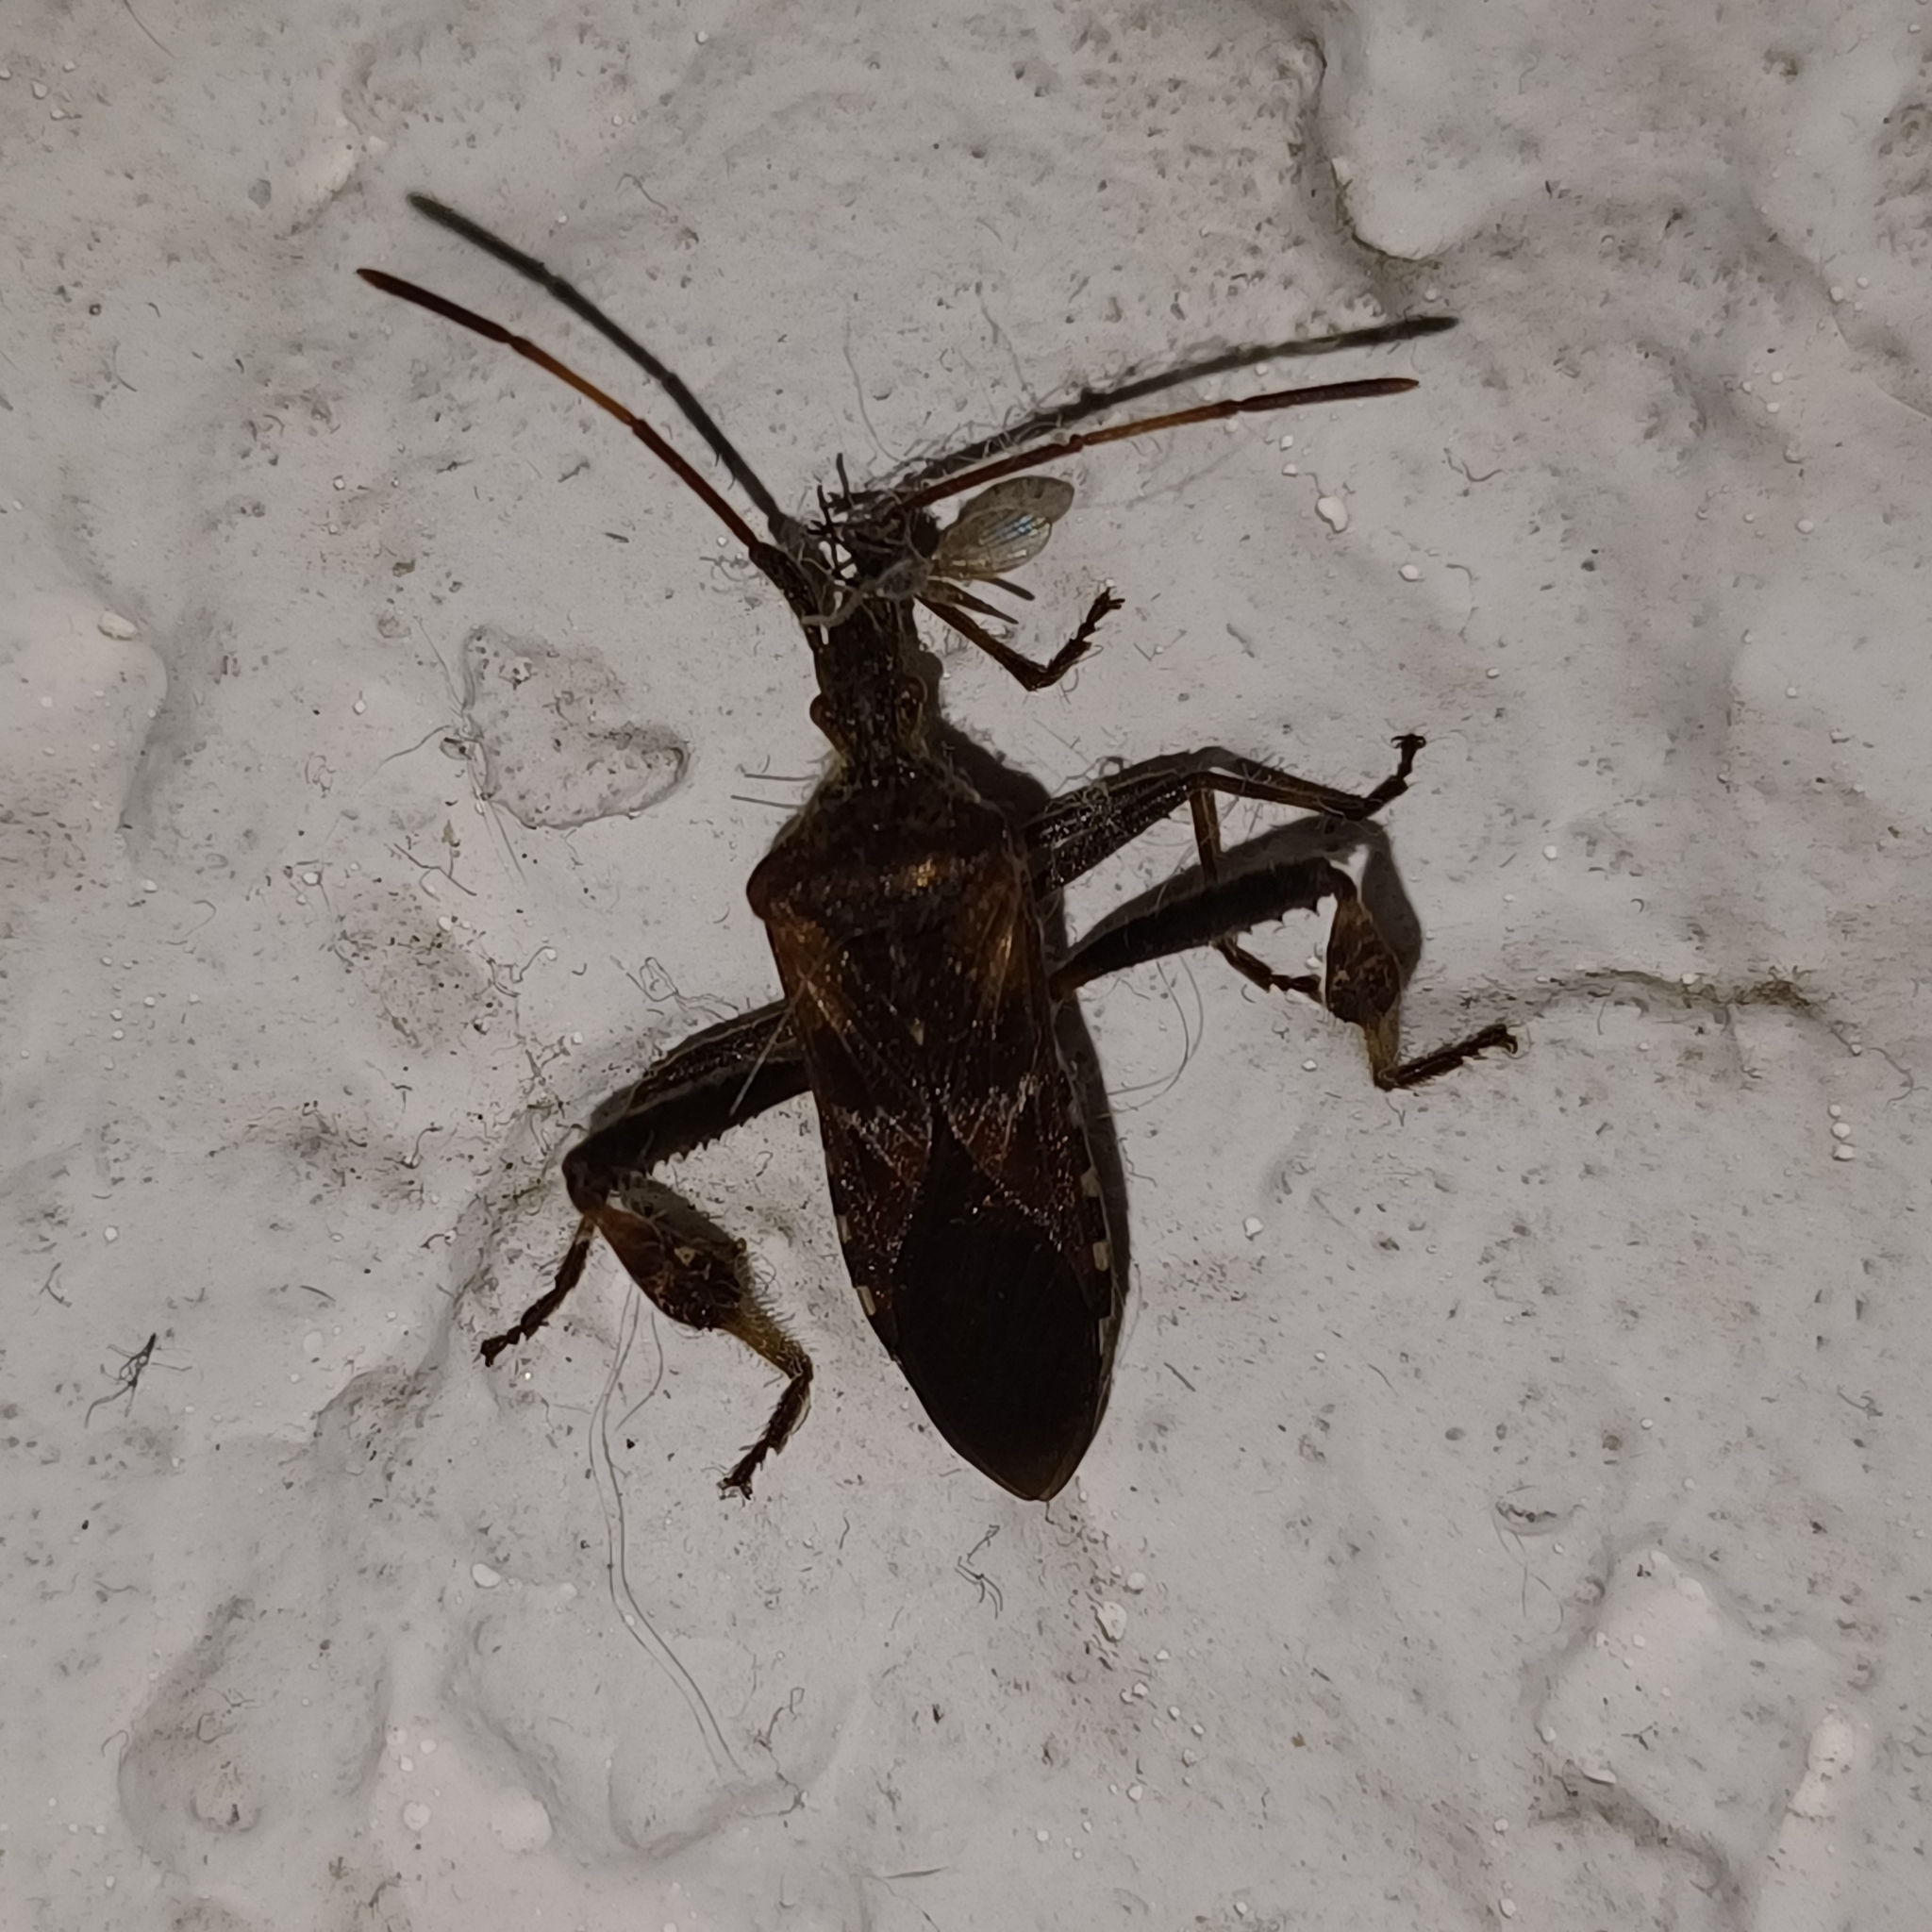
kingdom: Animalia
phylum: Arthropoda
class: Insecta
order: Hemiptera
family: Coreidae
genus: Leptoglossus
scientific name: Leptoglossus occidentalis
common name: Western conifer-seed bug
